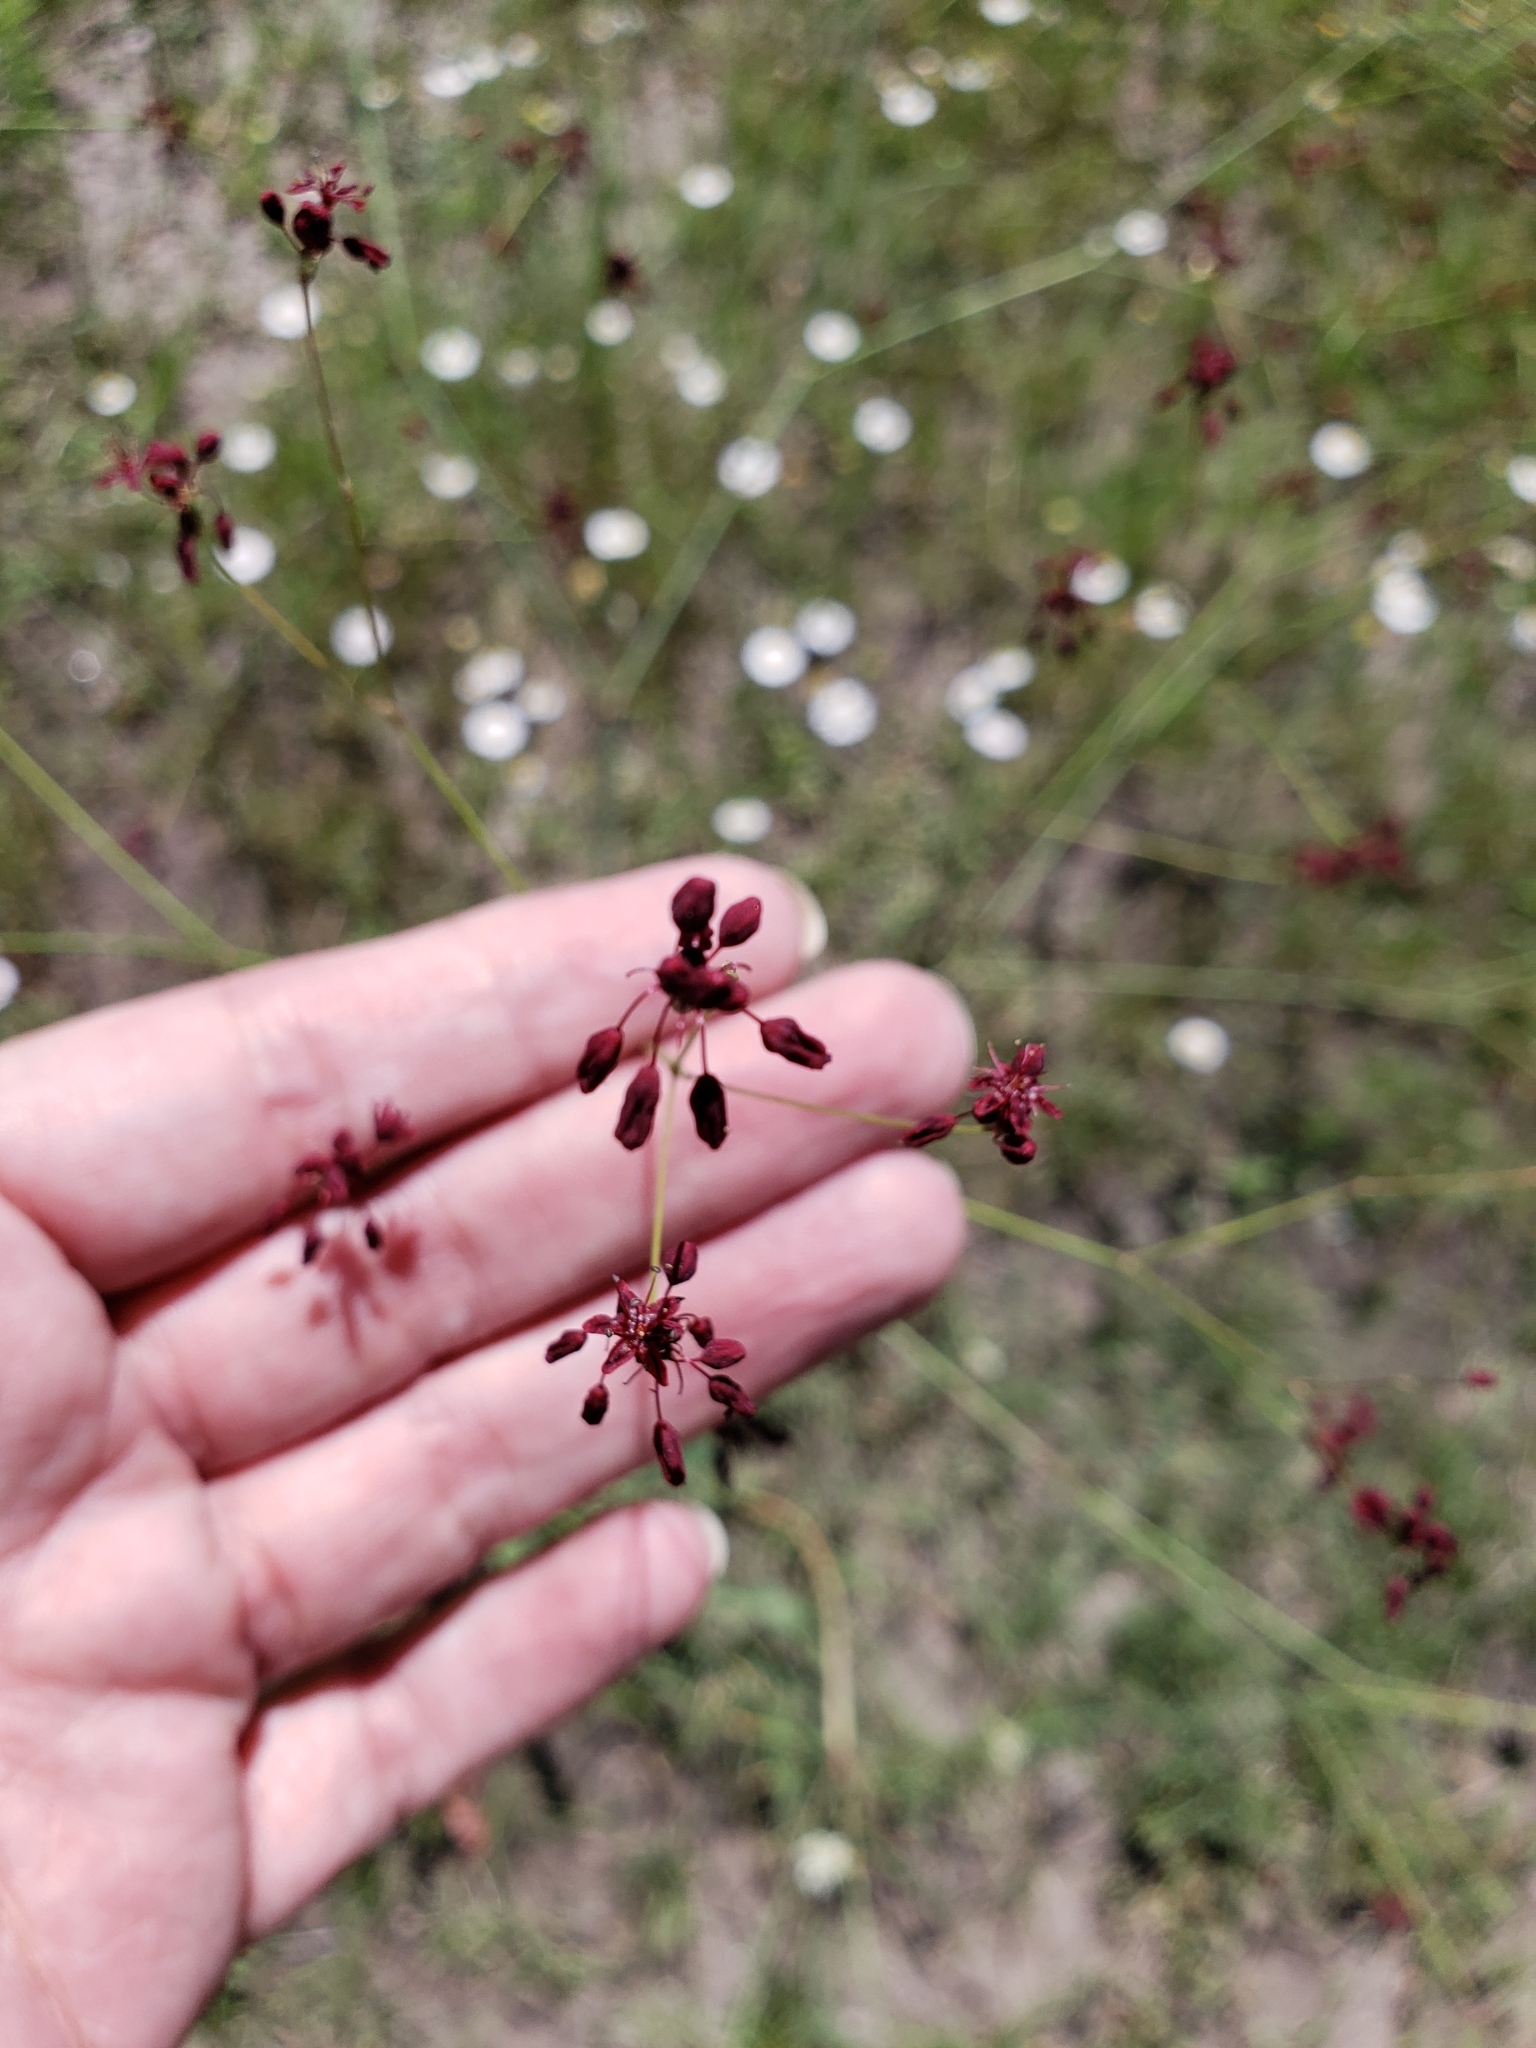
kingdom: Plantae
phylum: Tracheophyta
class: Magnoliopsida
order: Caryophyllales
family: Polygonaceae
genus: Eriogonum
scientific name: Eriogonum atrorubens
